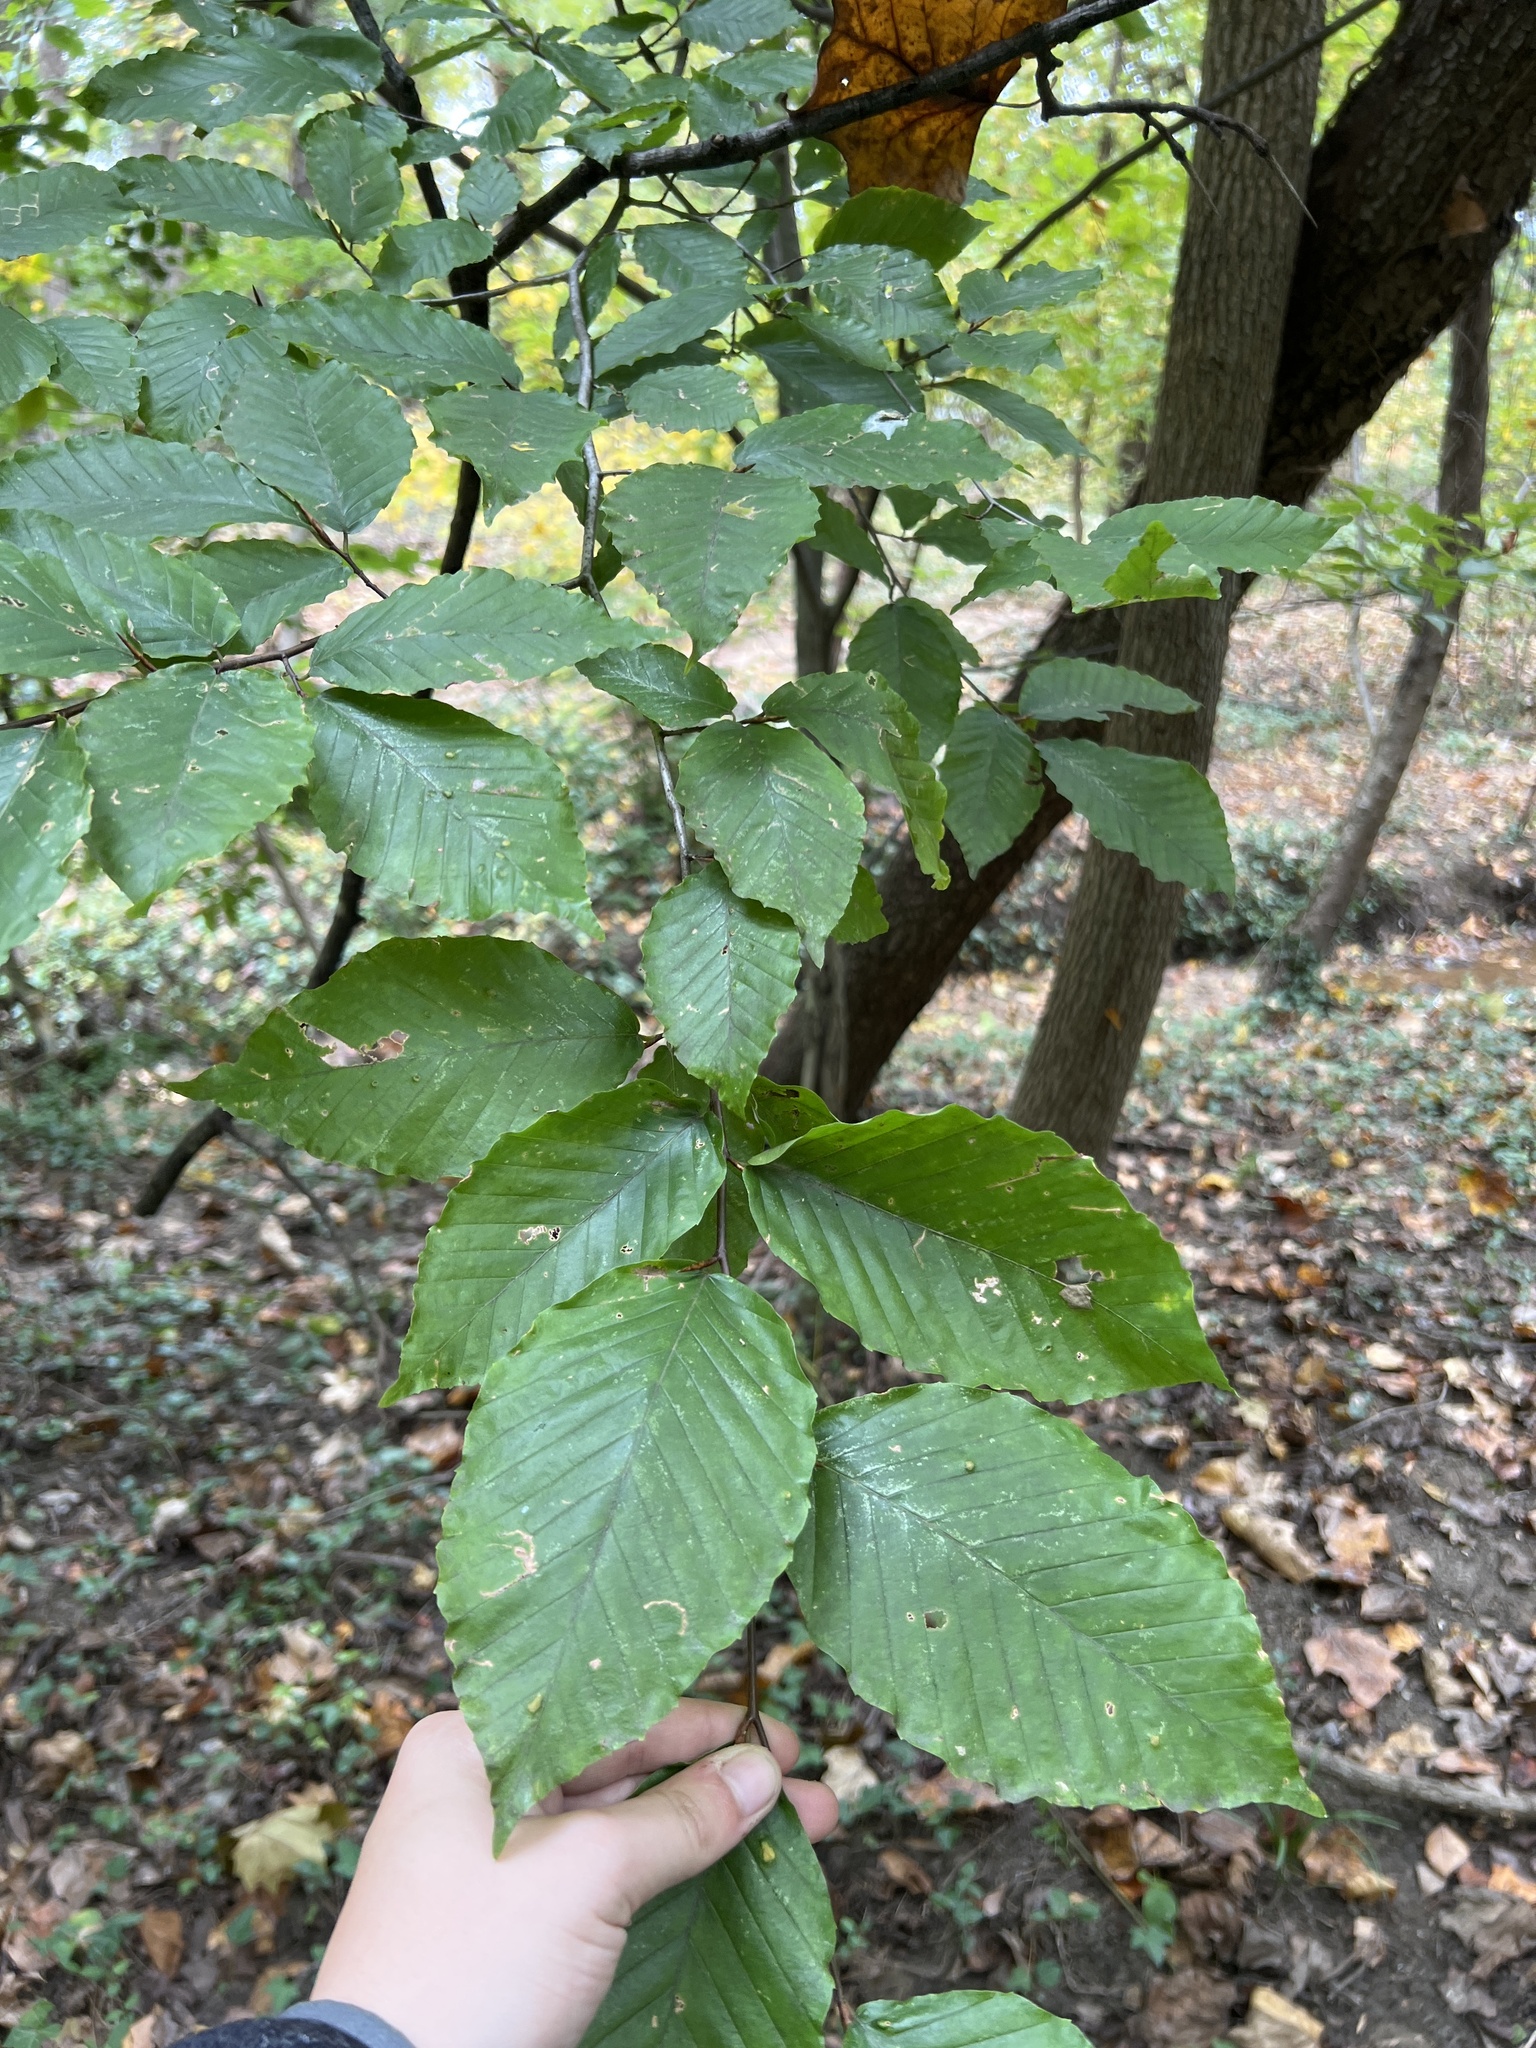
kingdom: Plantae
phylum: Tracheophyta
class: Magnoliopsida
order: Fagales
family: Fagaceae
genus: Fagus
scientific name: Fagus grandifolia
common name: American beech
